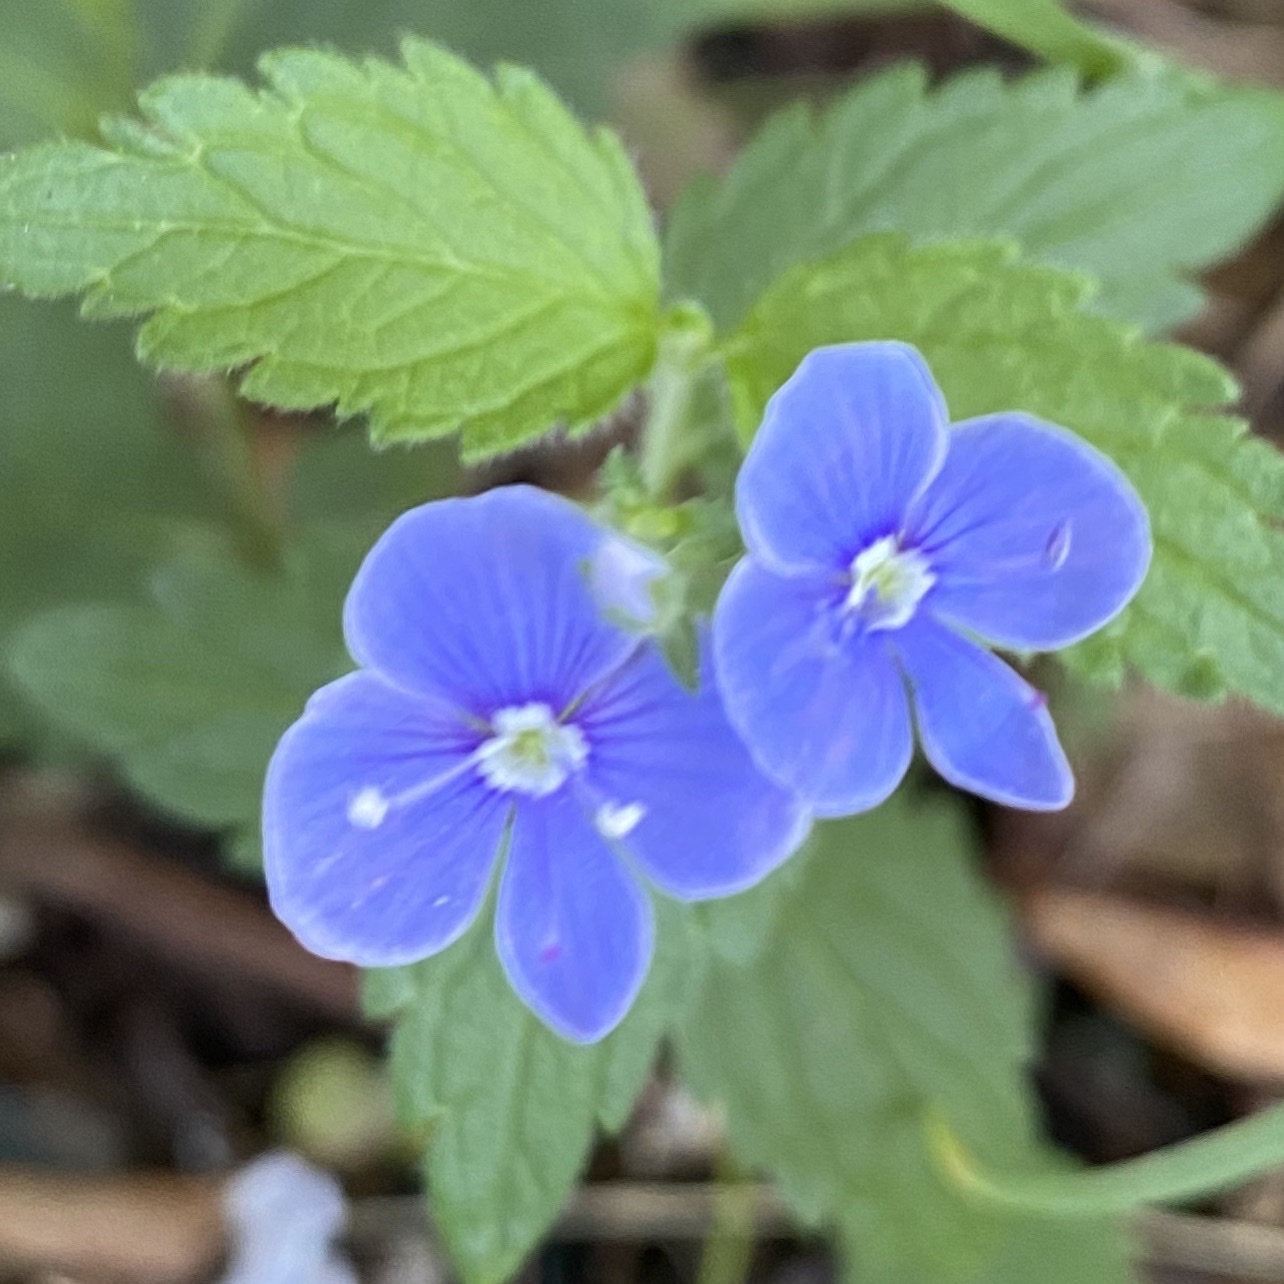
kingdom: Plantae
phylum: Tracheophyta
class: Magnoliopsida
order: Lamiales
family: Plantaginaceae
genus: Veronica
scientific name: Veronica chamaedrys
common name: Germander speedwell
